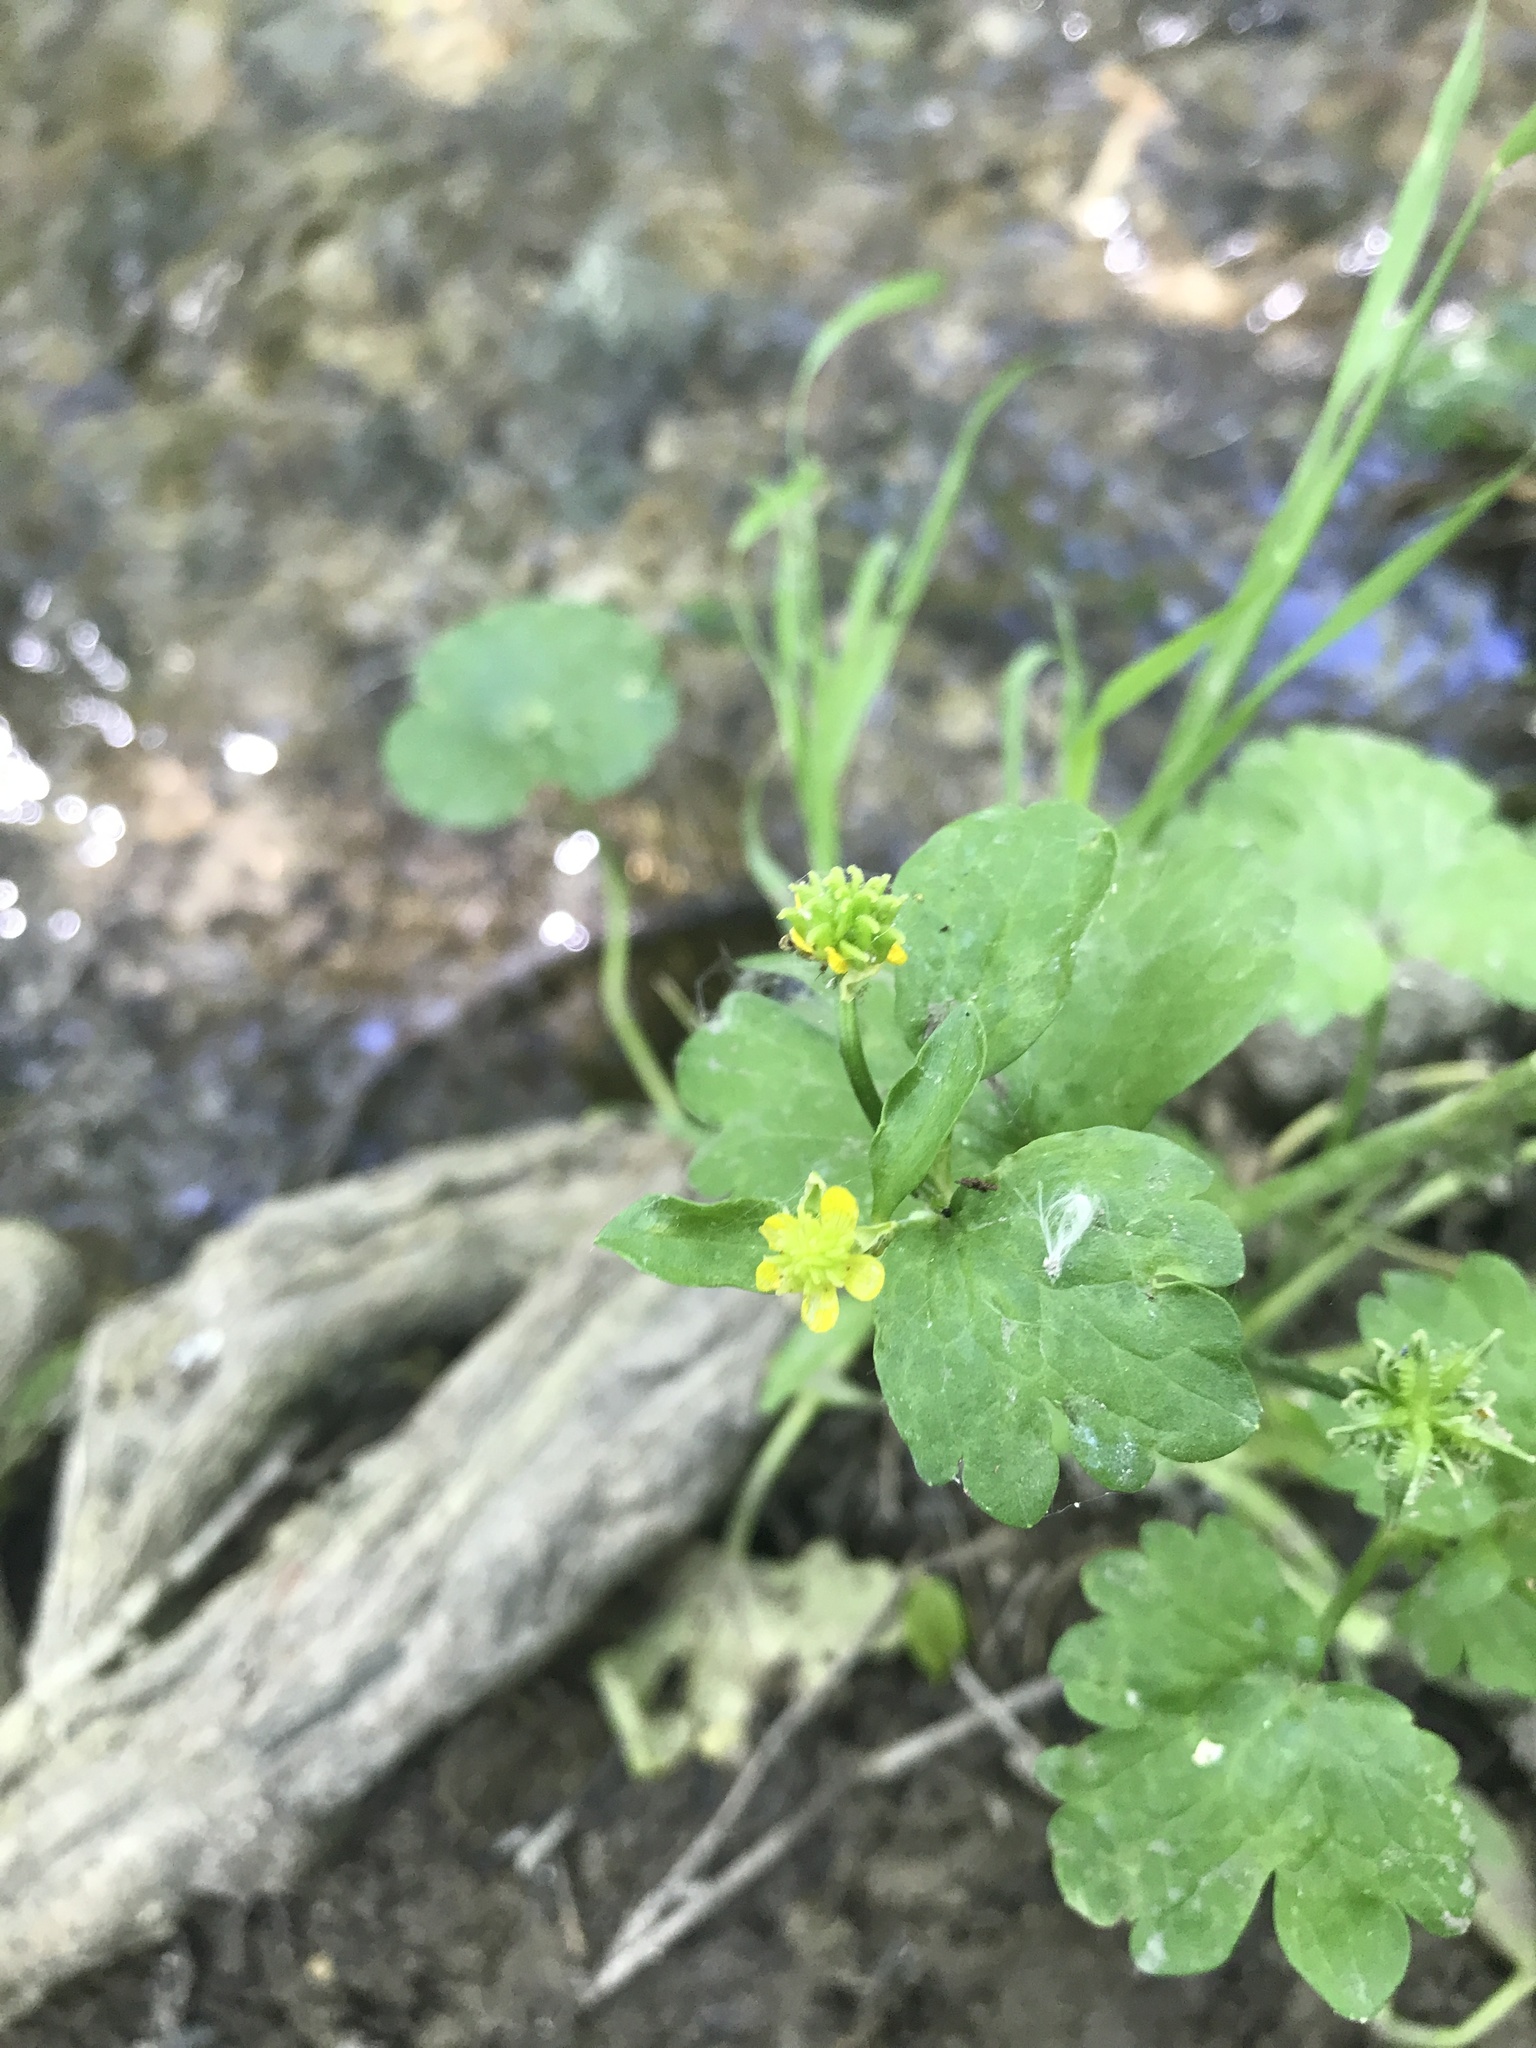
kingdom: Plantae
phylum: Tracheophyta
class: Magnoliopsida
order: Ranunculales
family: Ranunculaceae
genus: Ranunculus
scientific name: Ranunculus muricatus
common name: Rough-fruited buttercup
